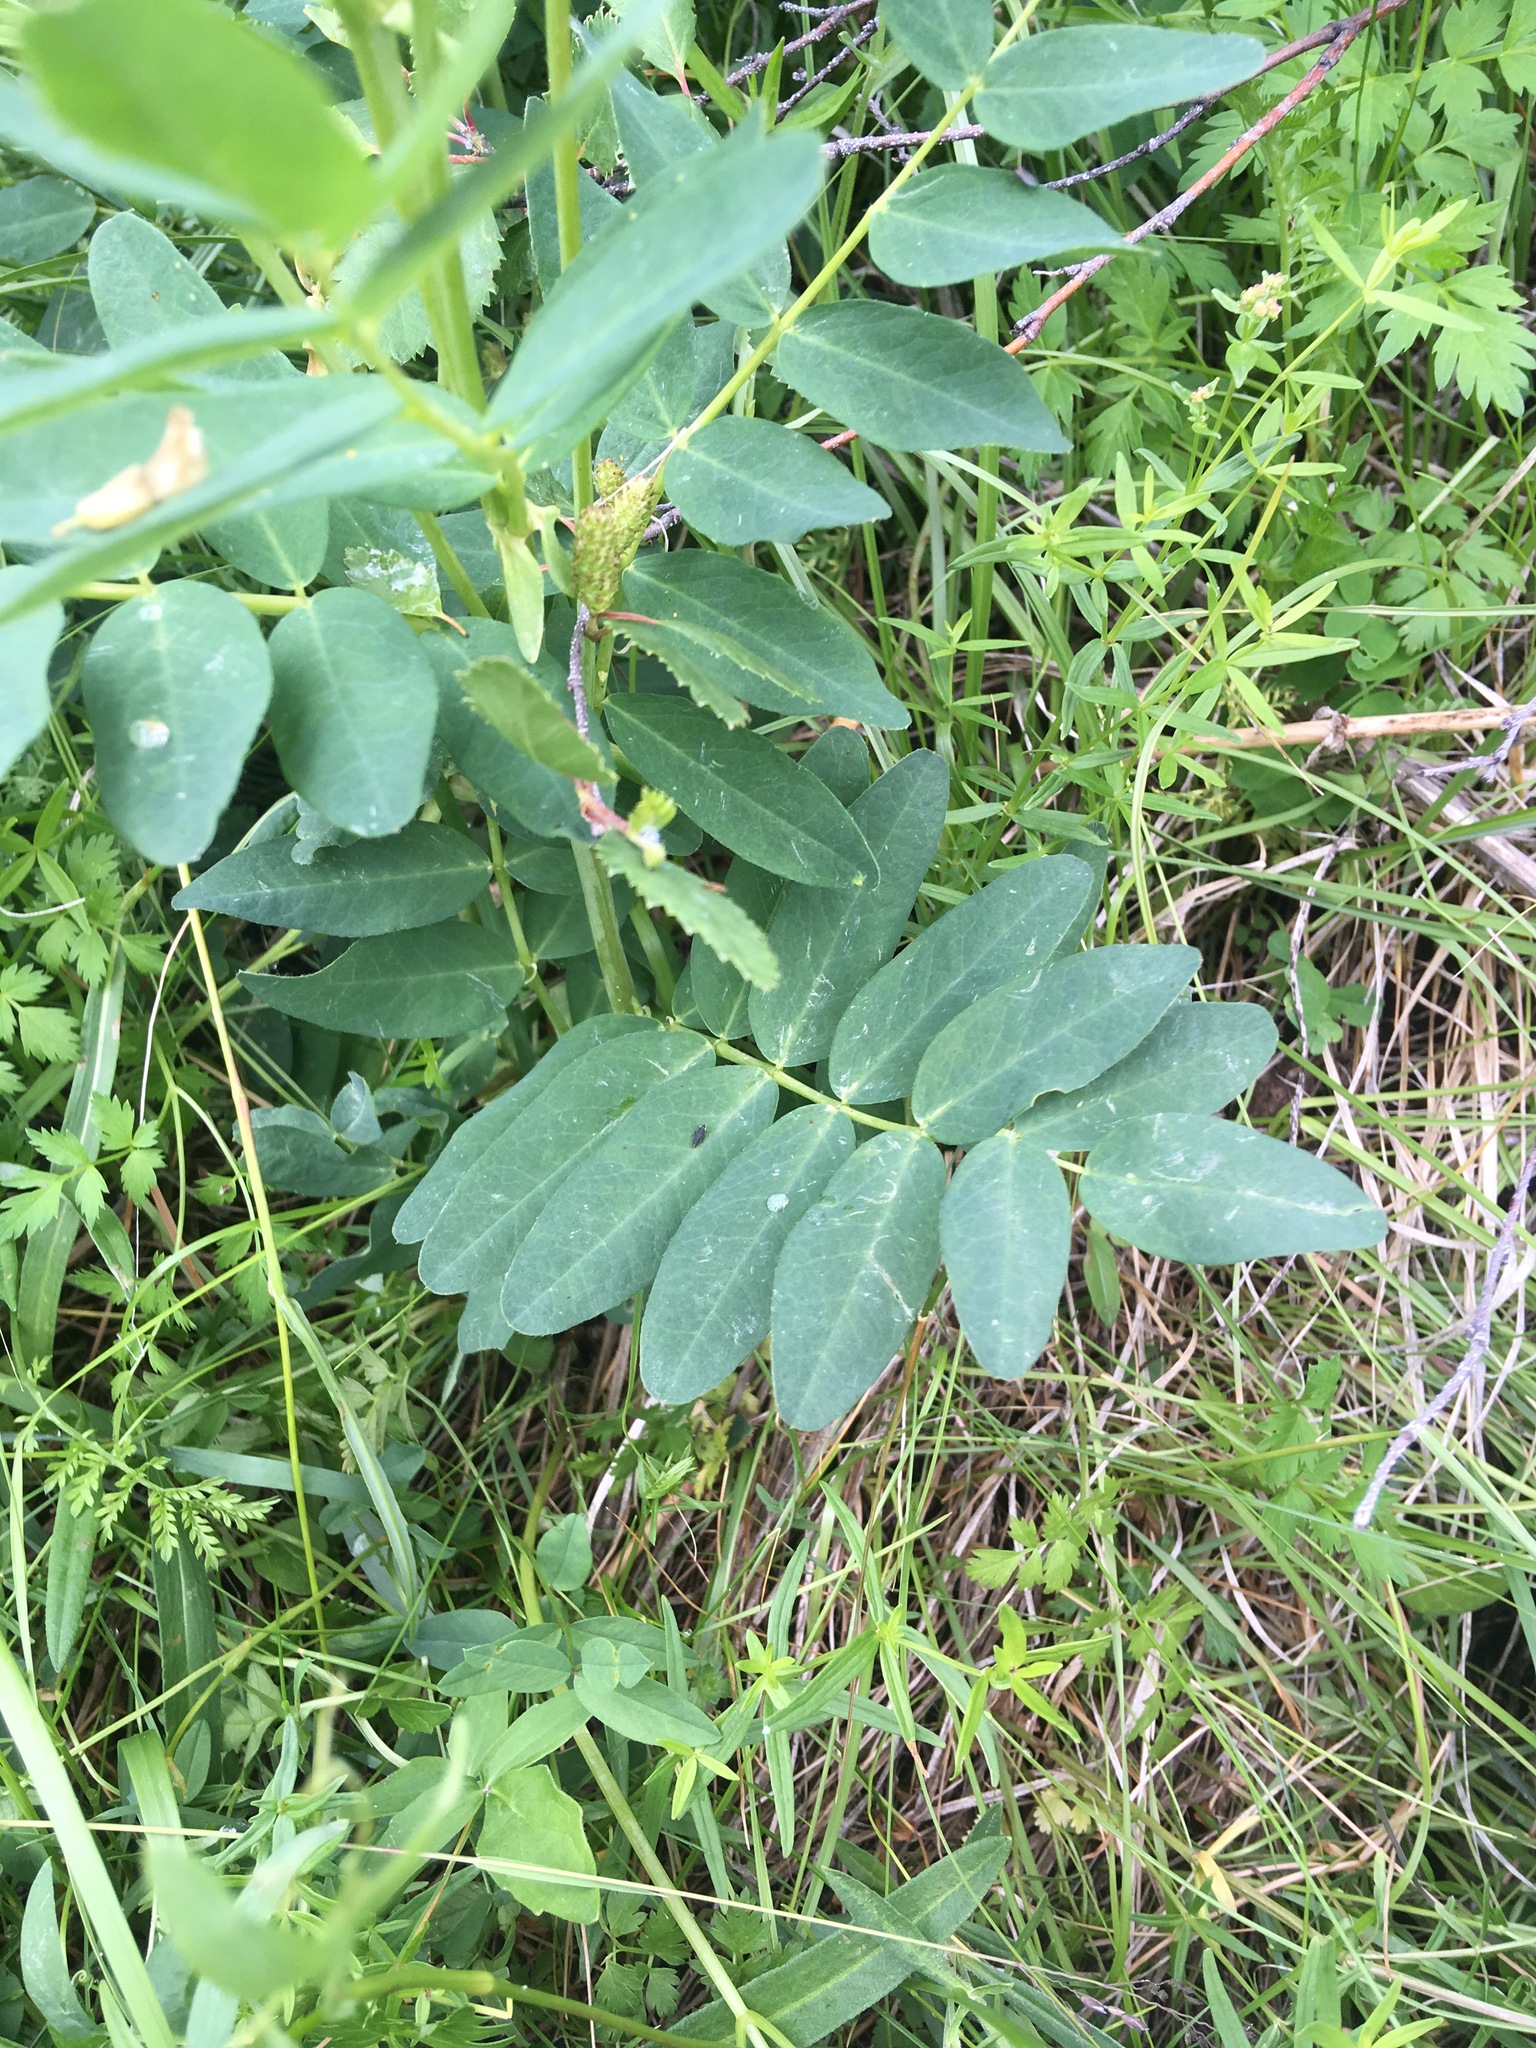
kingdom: Plantae
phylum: Tracheophyta
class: Magnoliopsida
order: Fabales
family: Fabaceae
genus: Astragalus
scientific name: Astragalus frigidus
